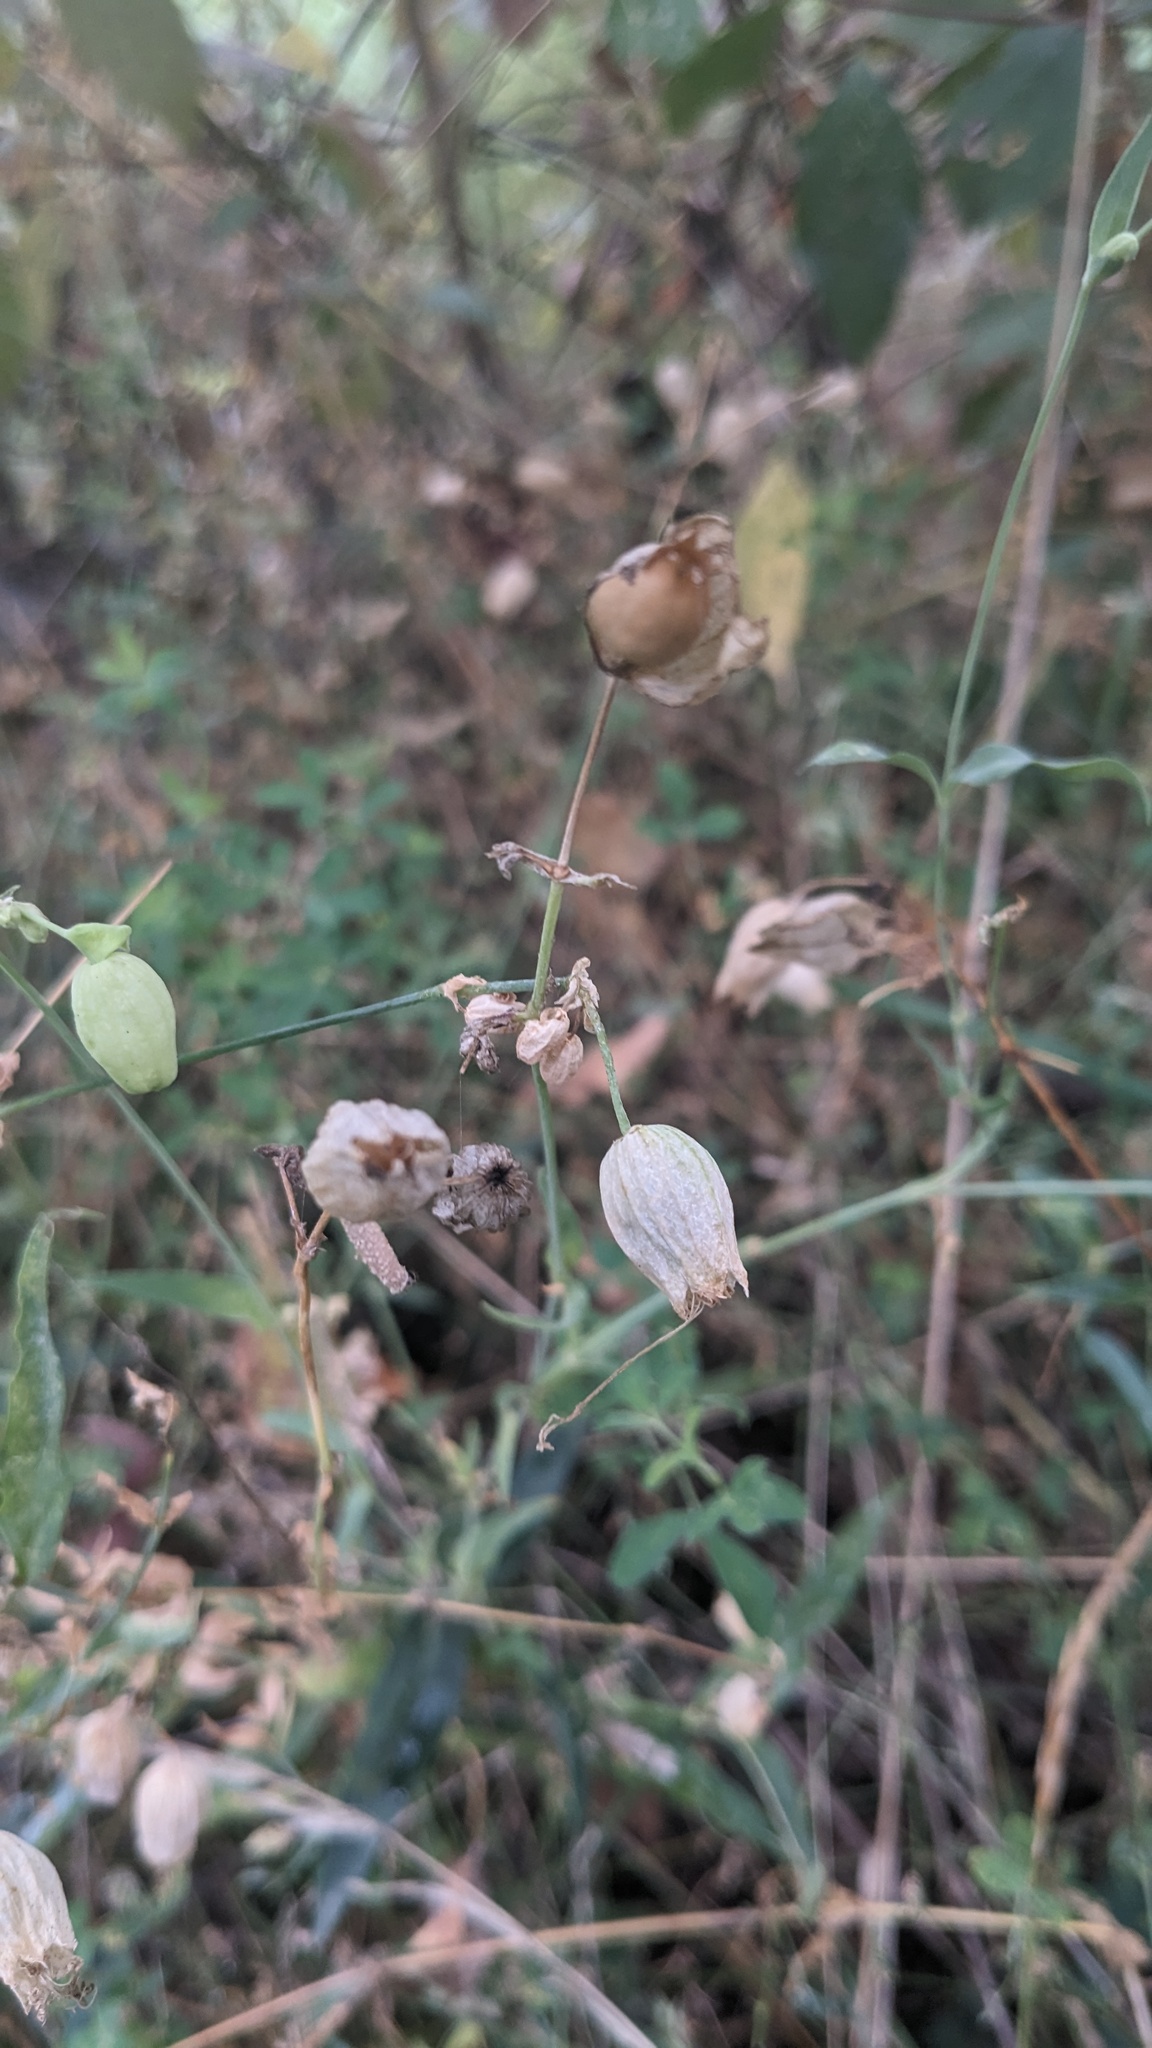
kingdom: Plantae
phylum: Tracheophyta
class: Magnoliopsida
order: Caryophyllales
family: Caryophyllaceae
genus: Silene
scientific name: Silene vulgaris
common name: Bladder campion
